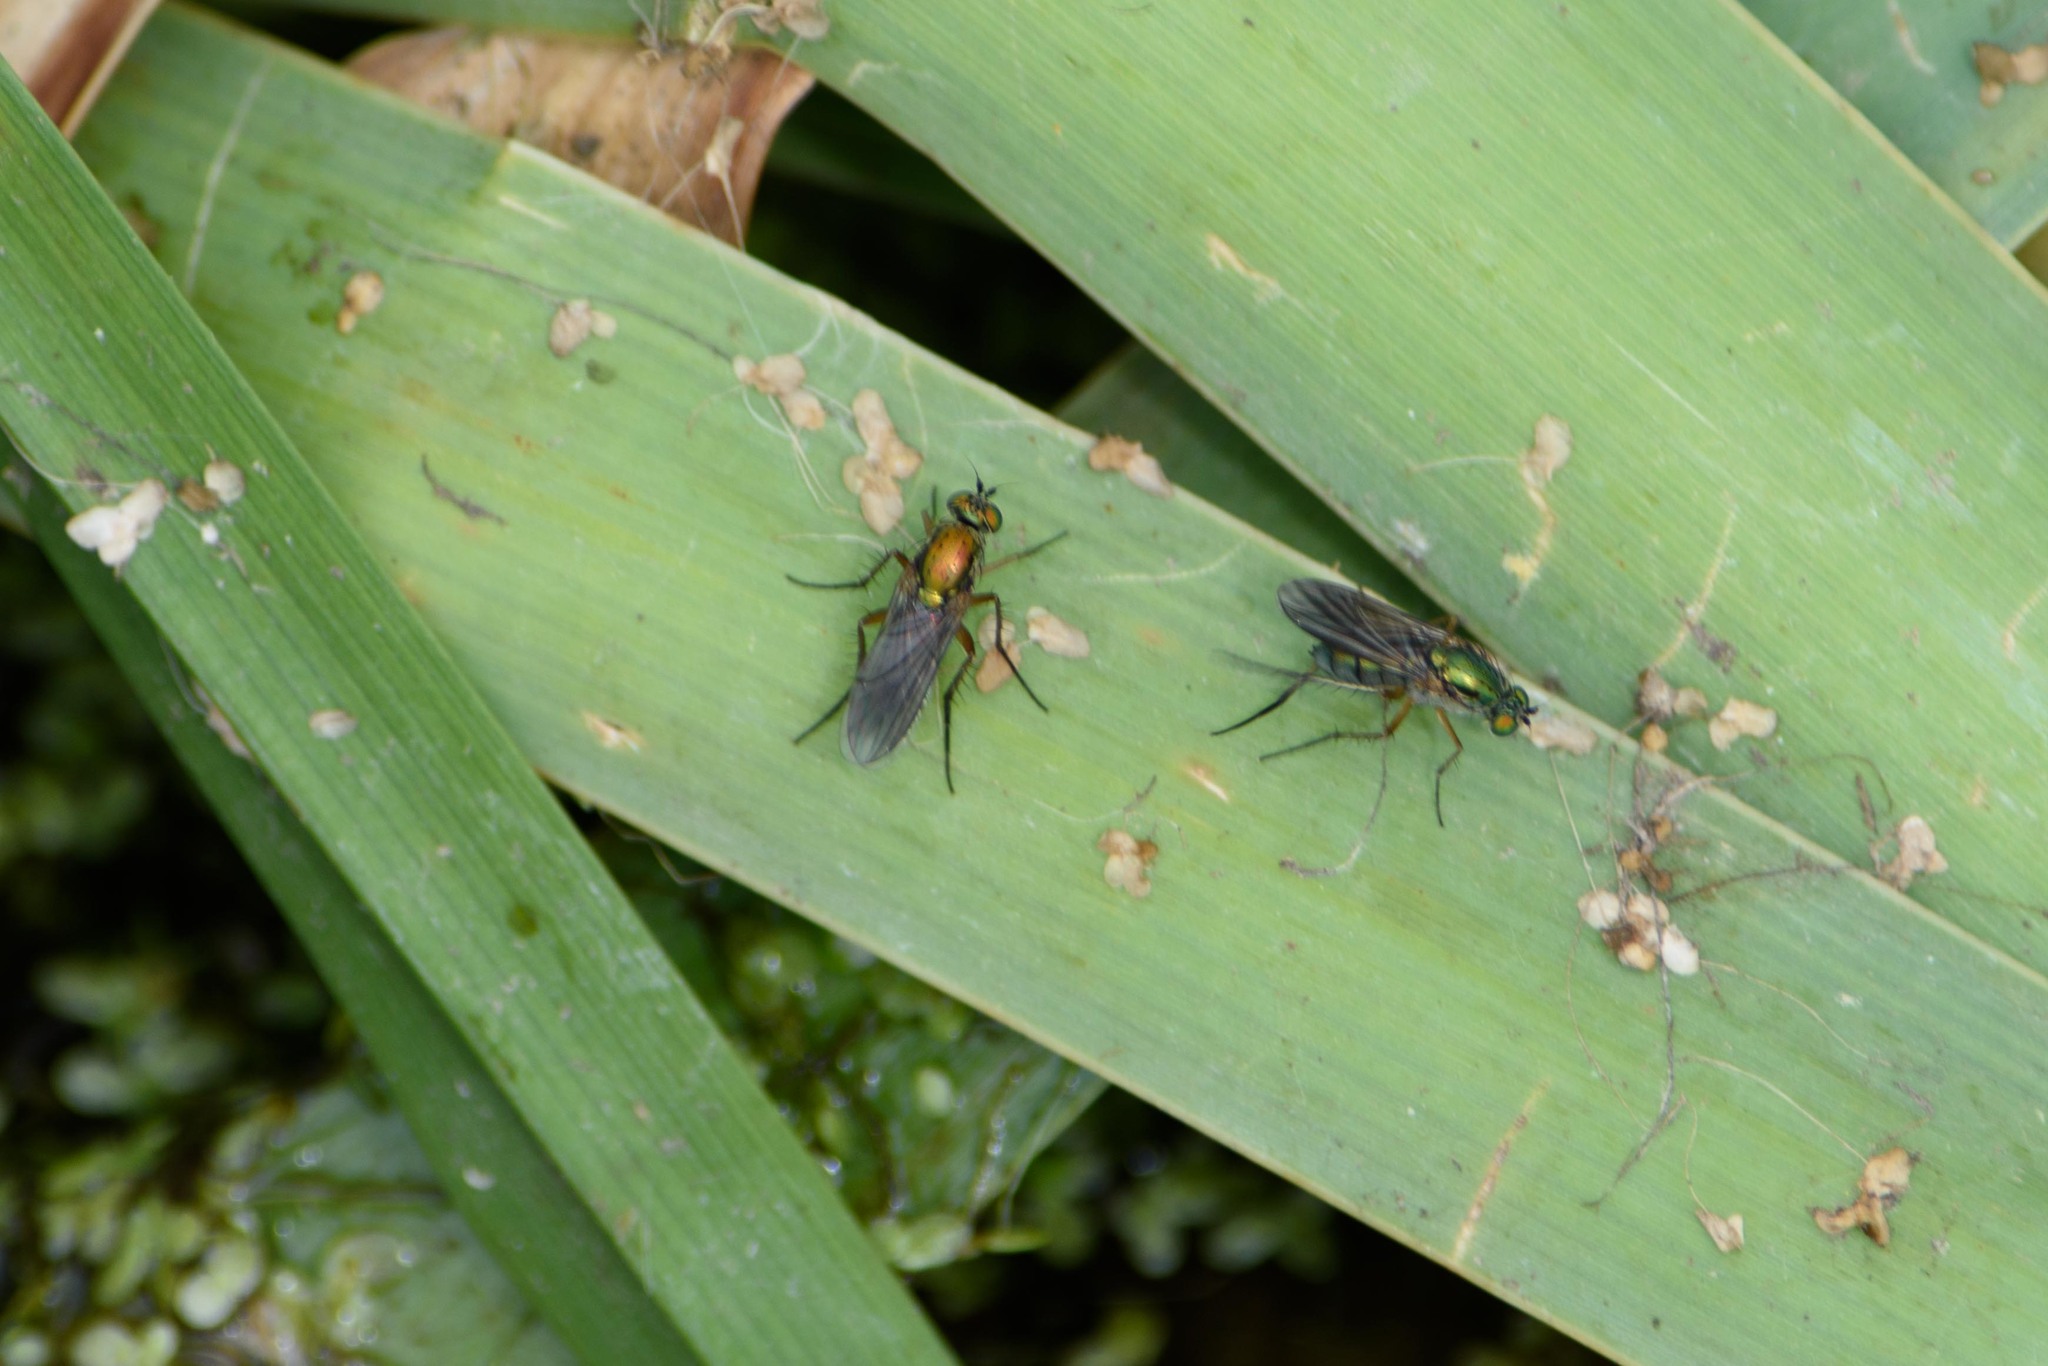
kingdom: Animalia
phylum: Arthropoda
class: Insecta
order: Diptera
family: Dolichopodidae
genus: Poecilobothrus
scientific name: Poecilobothrus nobilitatus
